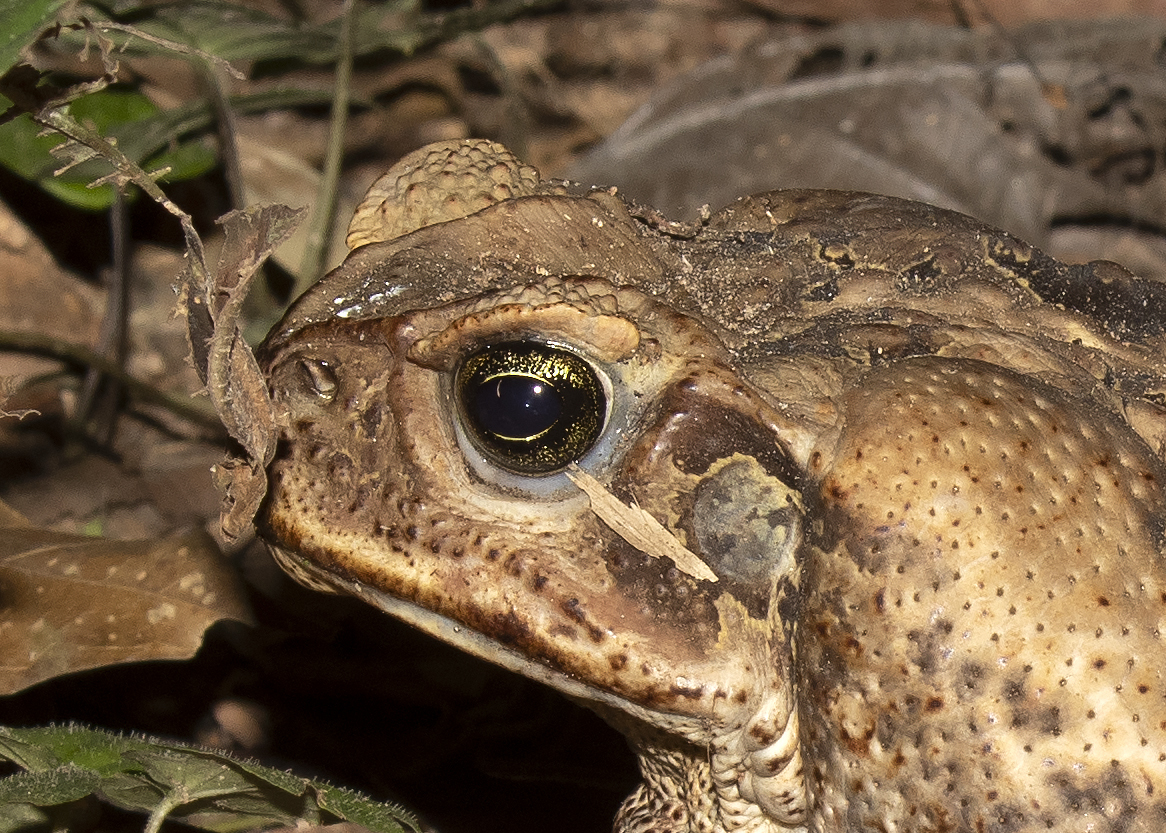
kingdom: Animalia
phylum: Chordata
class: Amphibia
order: Anura
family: Bufonidae
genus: Rhinella
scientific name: Rhinella marina
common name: Cane toad
